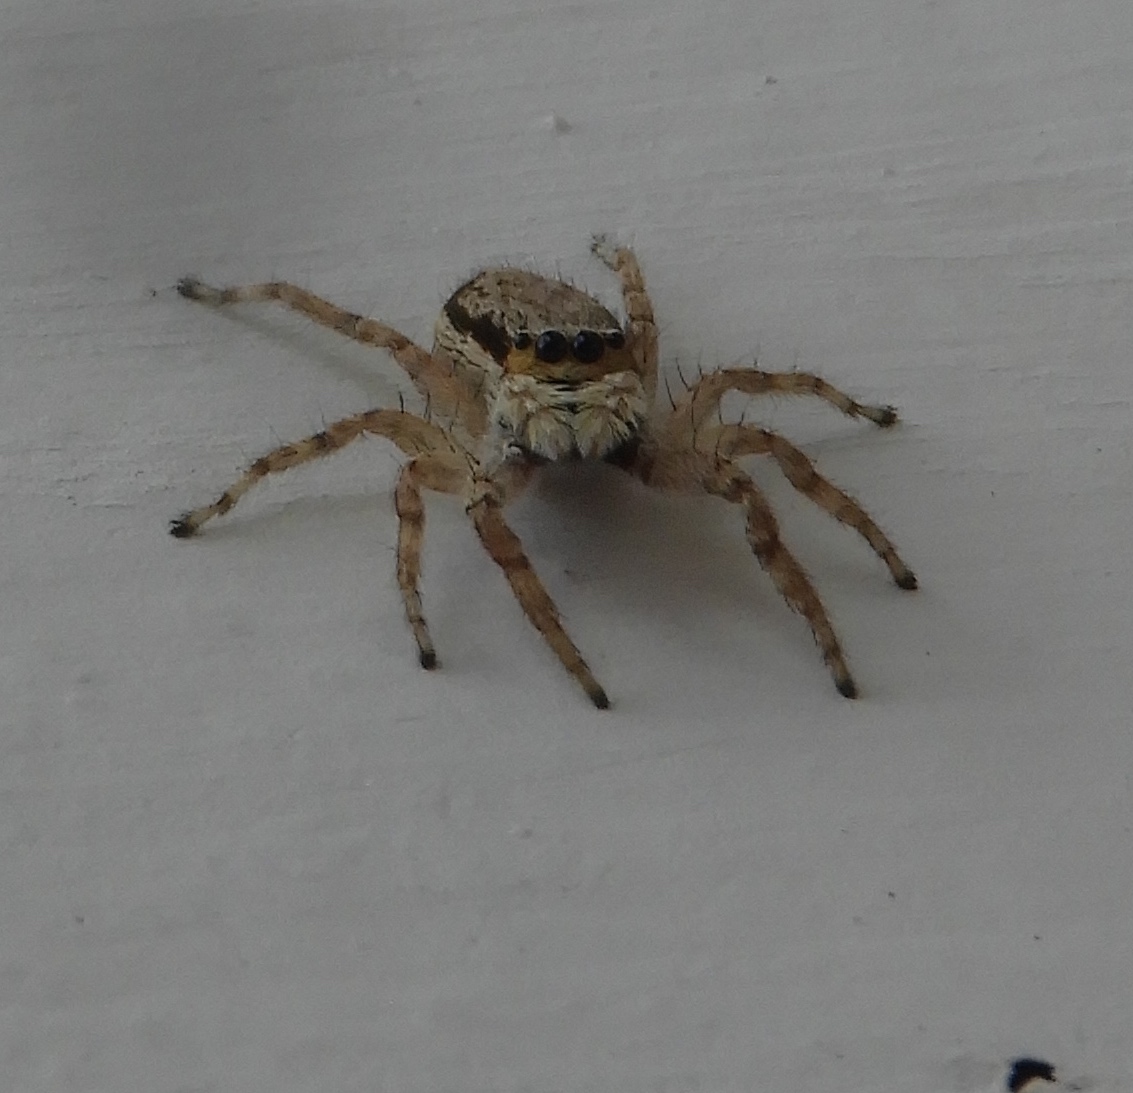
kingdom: Animalia
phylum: Arthropoda
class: Arachnida
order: Araneae
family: Salticidae
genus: Menemerus
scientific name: Menemerus bivittatus
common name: Gray wall jumper
